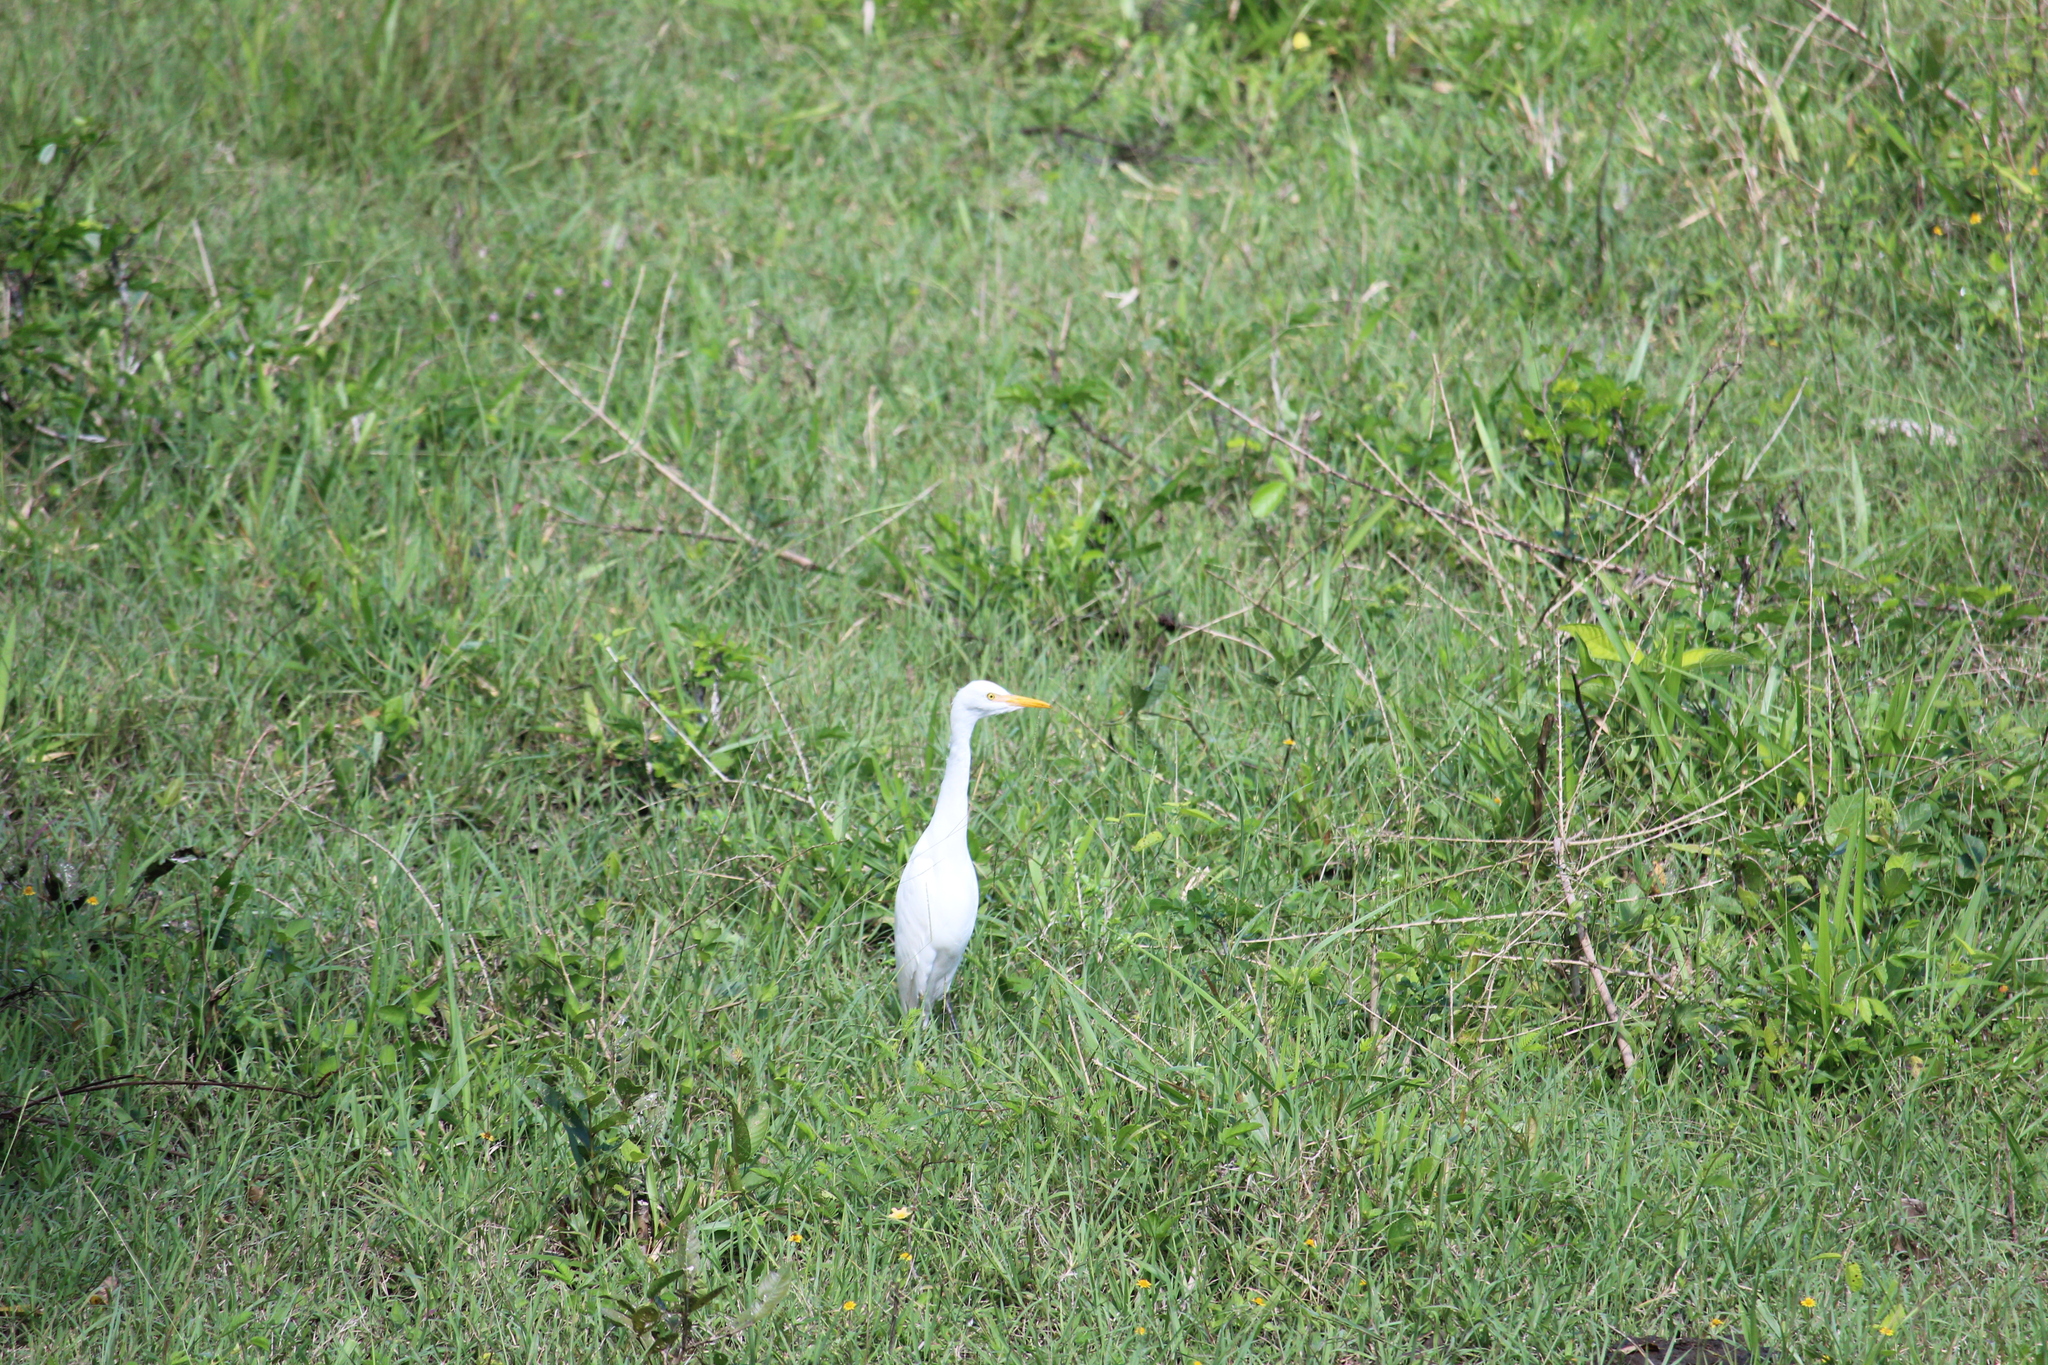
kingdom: Animalia
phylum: Chordata
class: Aves
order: Pelecaniformes
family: Ardeidae
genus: Bubulcus
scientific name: Bubulcus ibis
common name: Cattle egret
